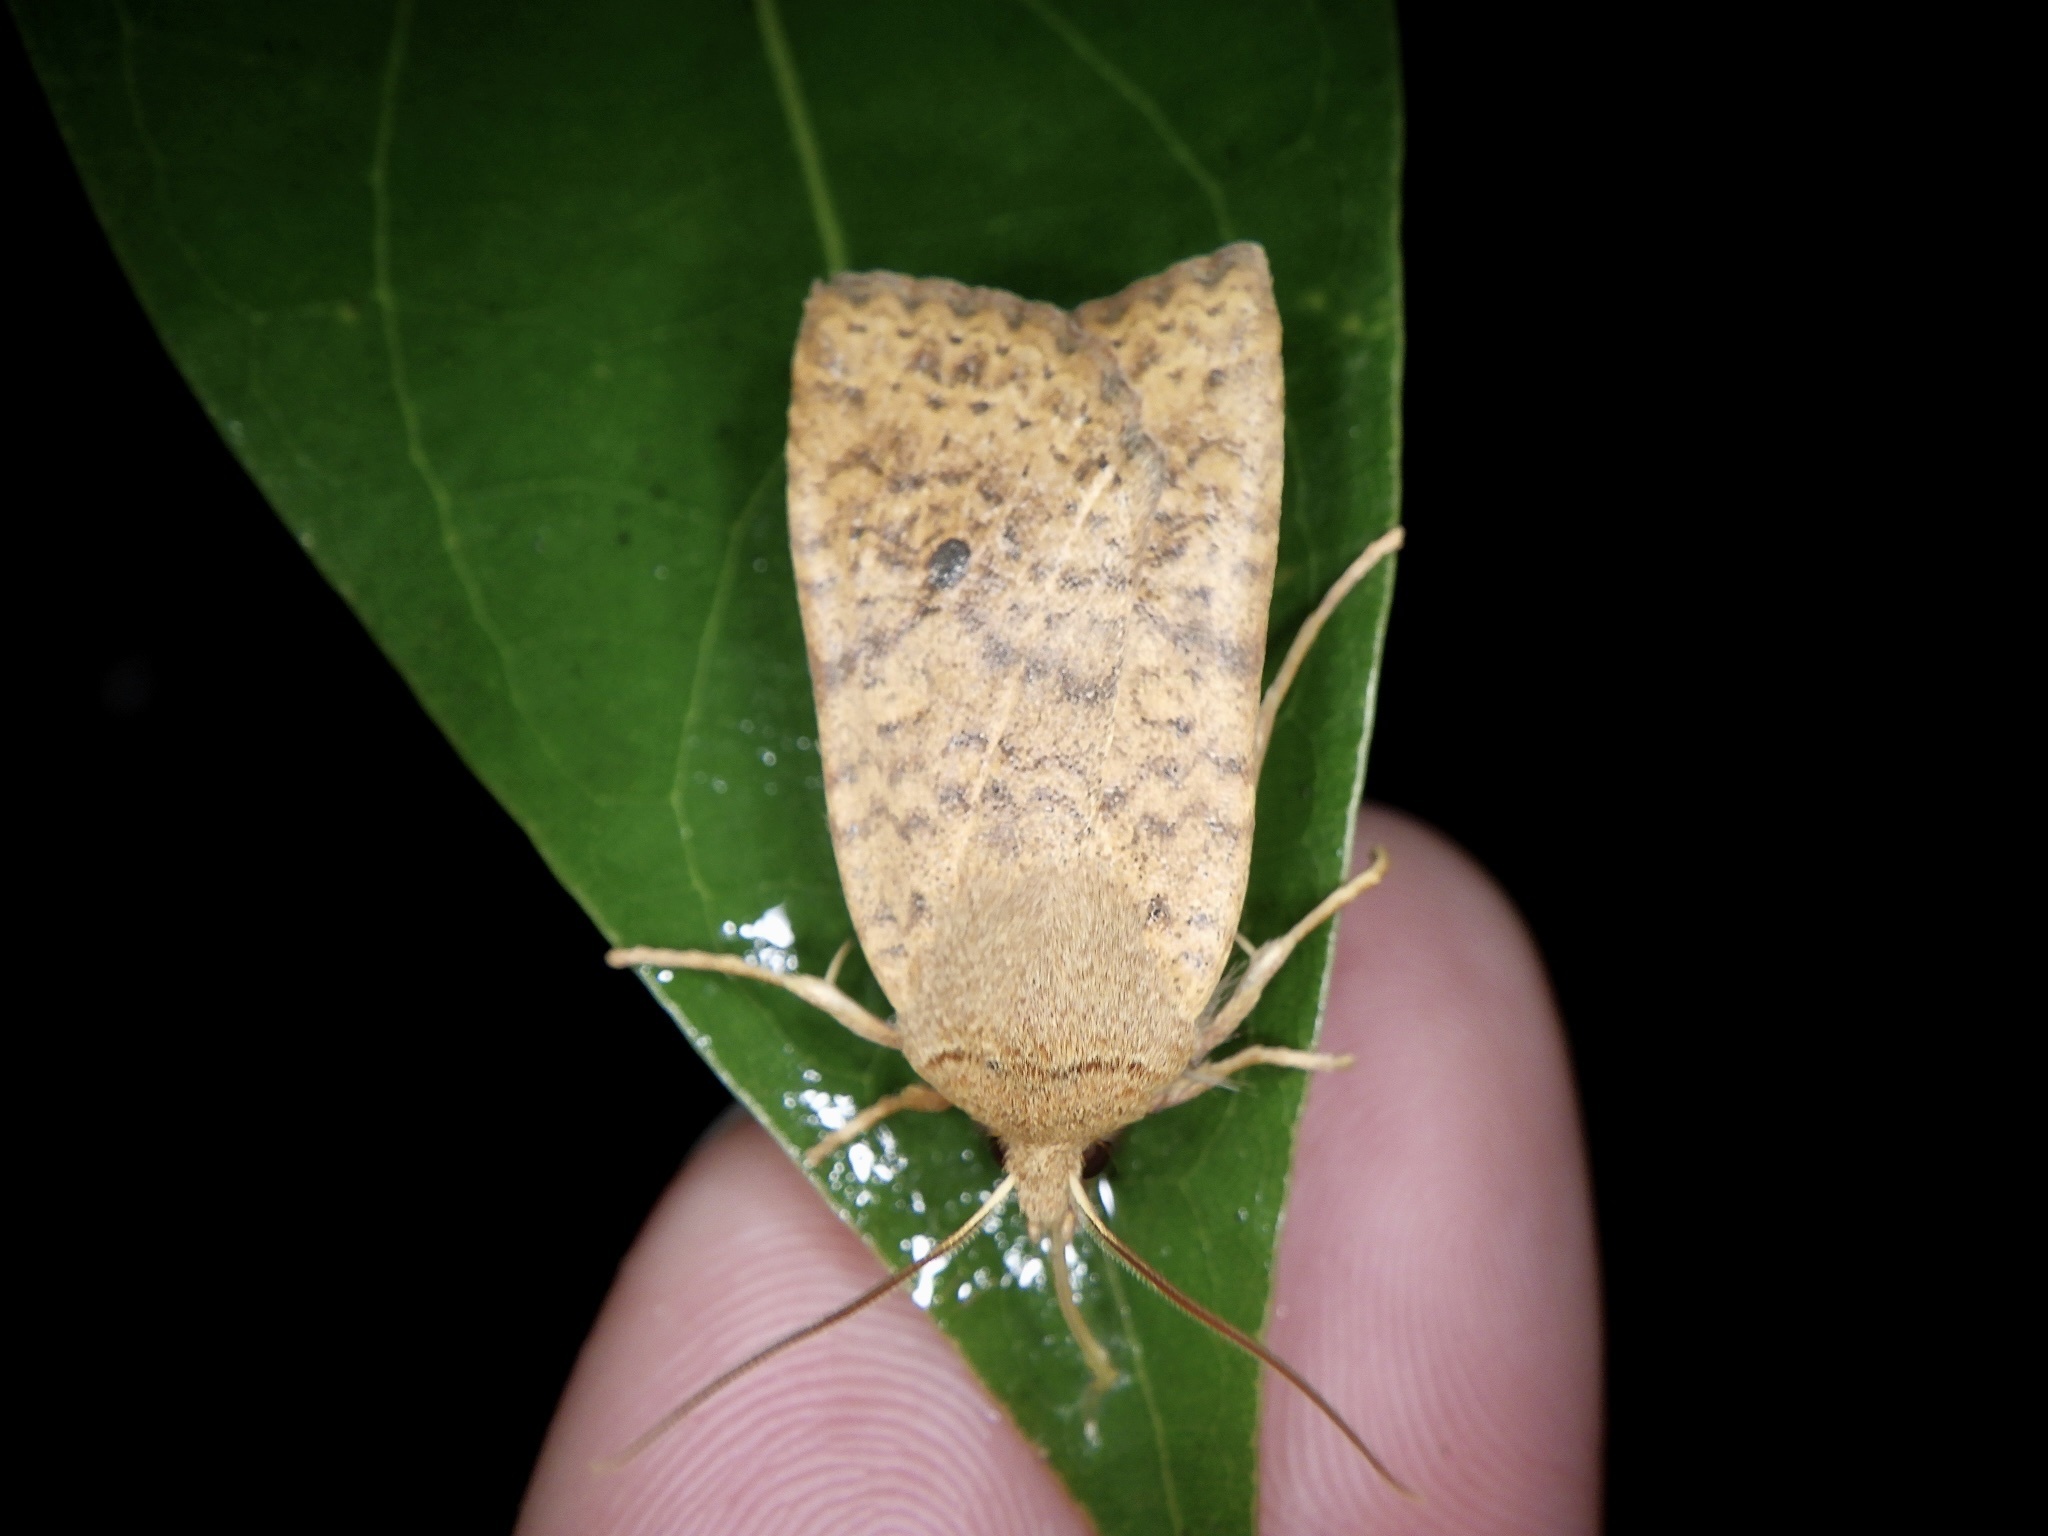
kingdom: Animalia
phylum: Arthropoda
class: Insecta
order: Lepidoptera
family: Noctuidae
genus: Conistra
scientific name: Conistra albipuncta
